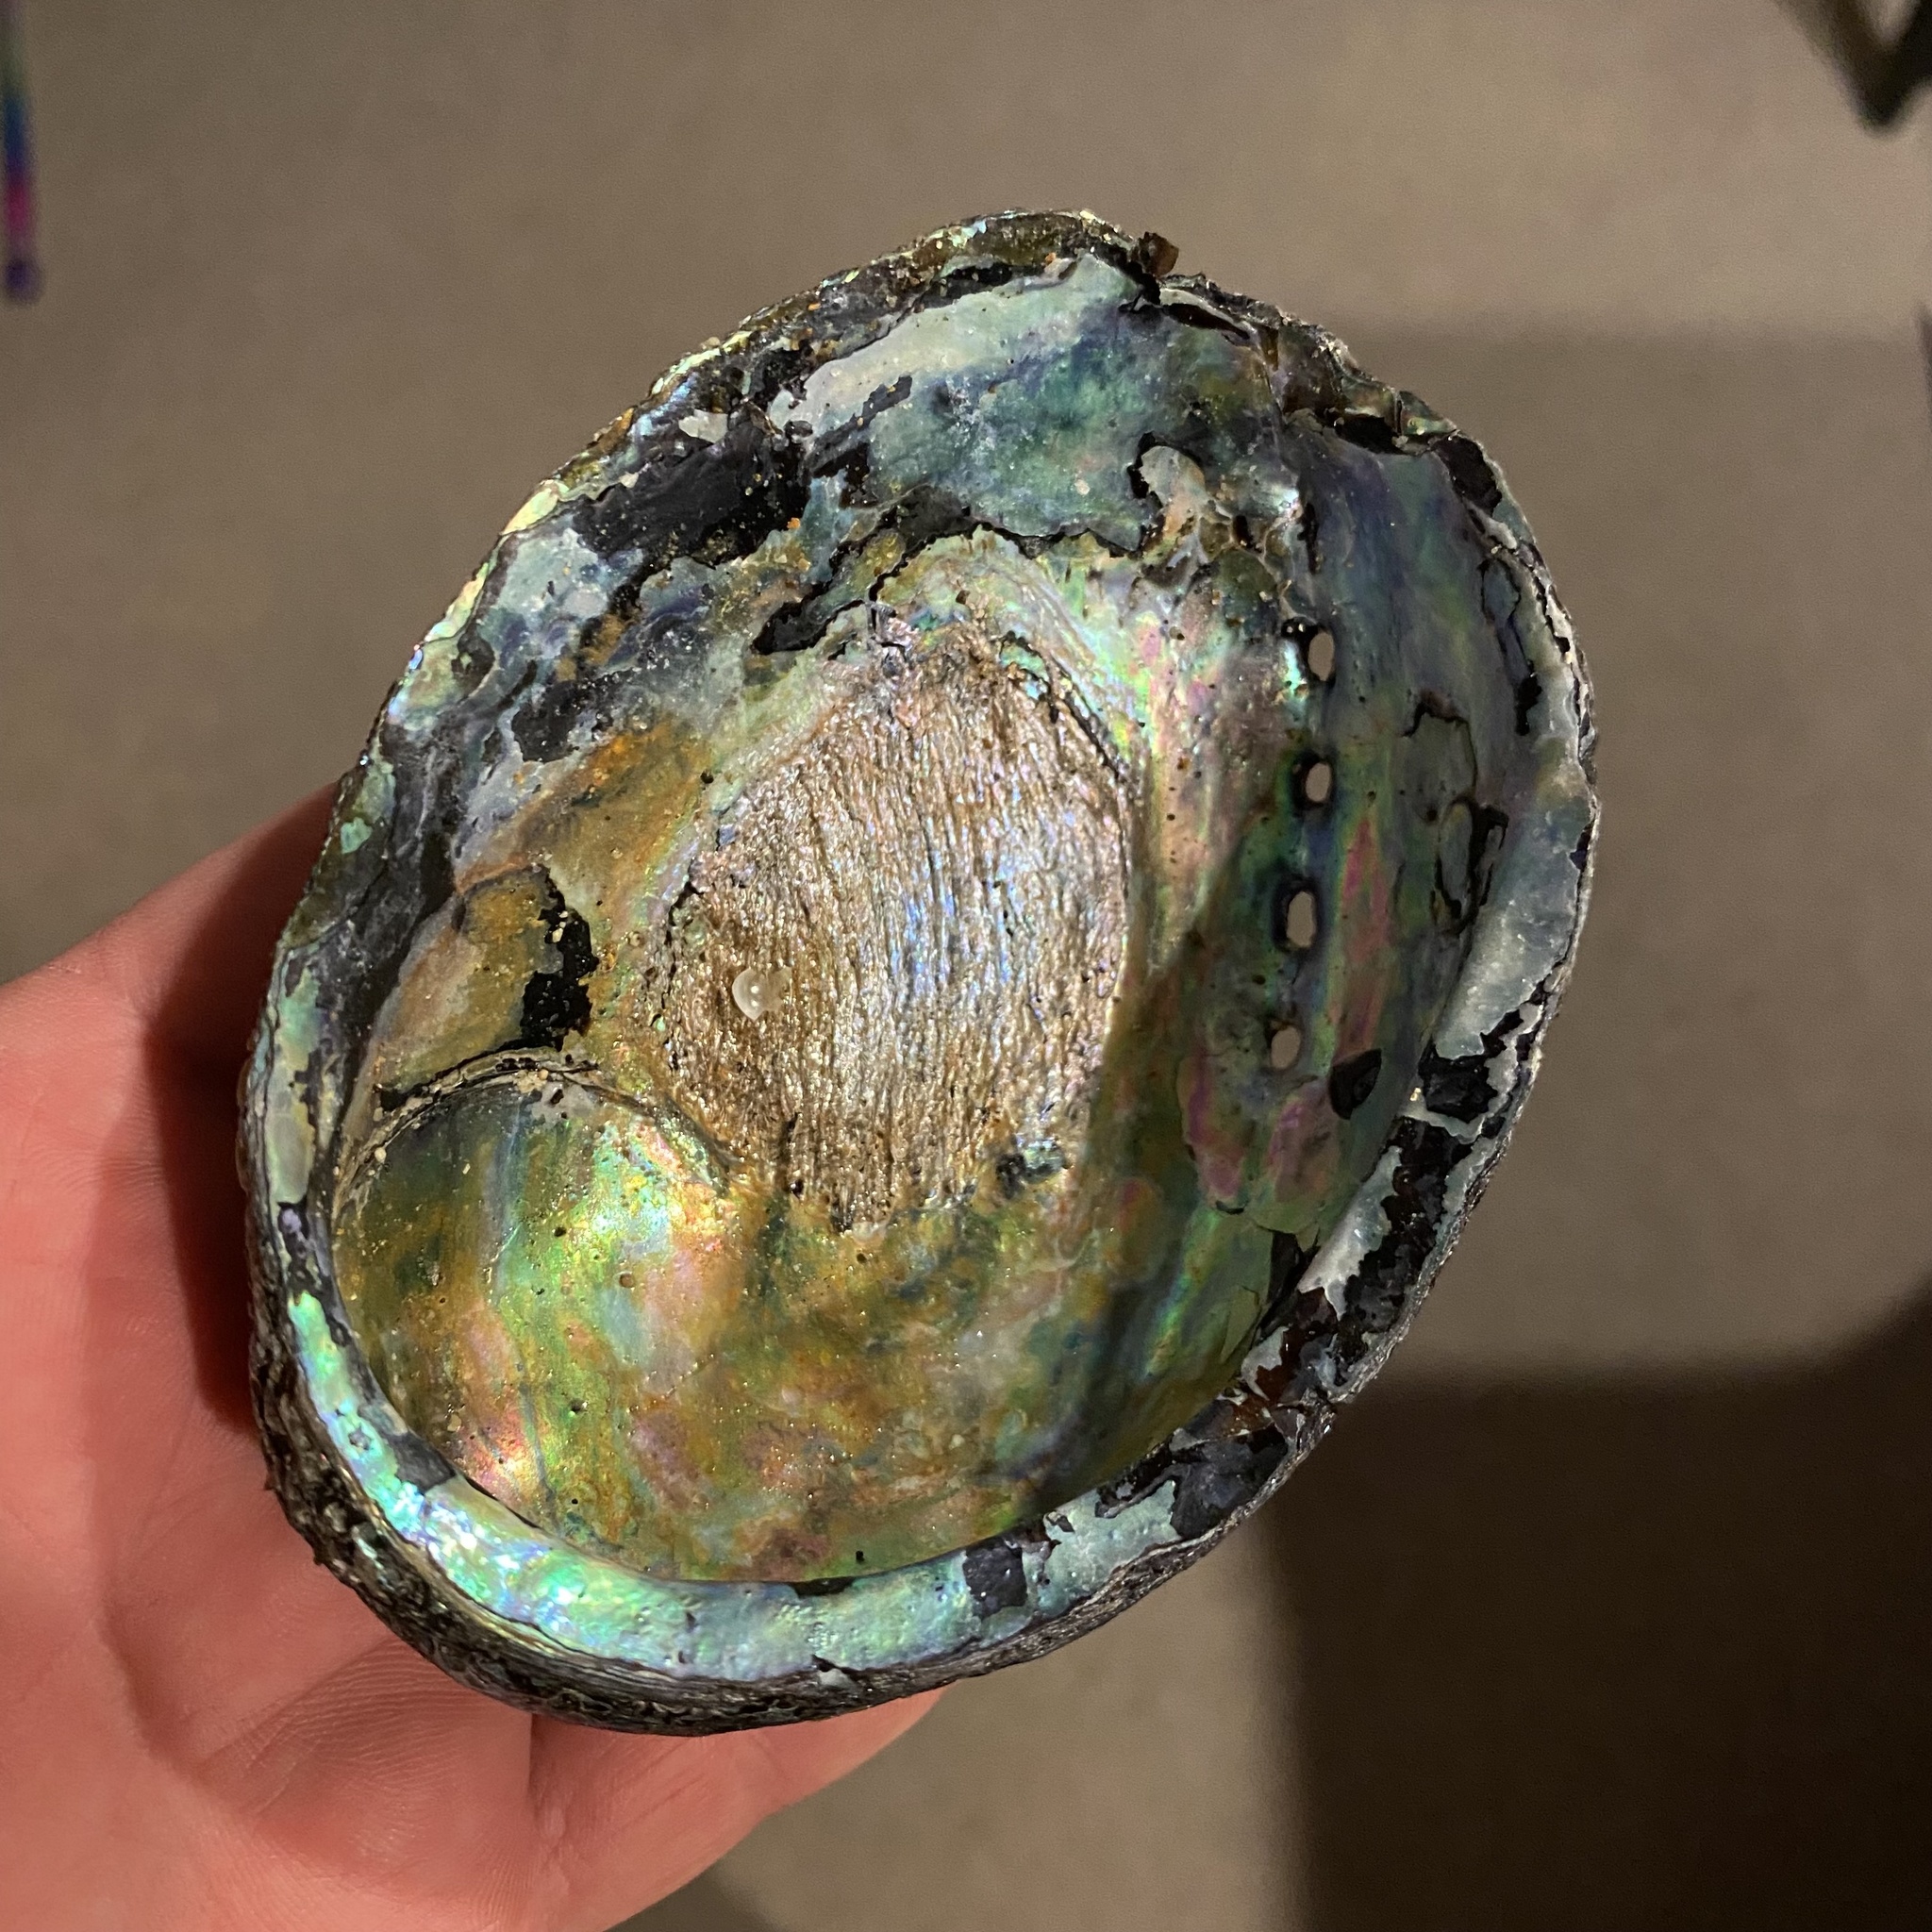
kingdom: Animalia
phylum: Mollusca
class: Gastropoda
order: Lepetellida
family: Haliotidae
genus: Haliotis
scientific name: Haliotis iris
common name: Abalone
